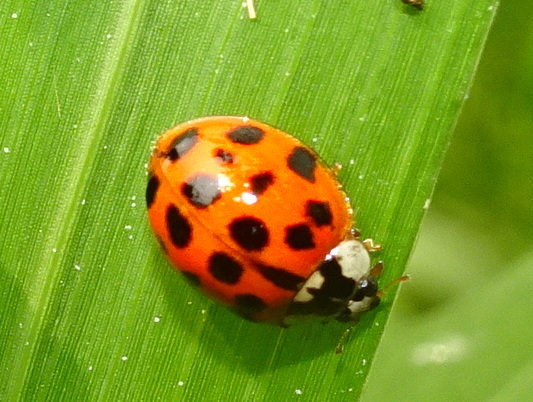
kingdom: Animalia
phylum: Arthropoda
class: Insecta
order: Coleoptera
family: Coccinellidae
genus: Harmonia
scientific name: Harmonia axyridis
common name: Harlequin ladybird
